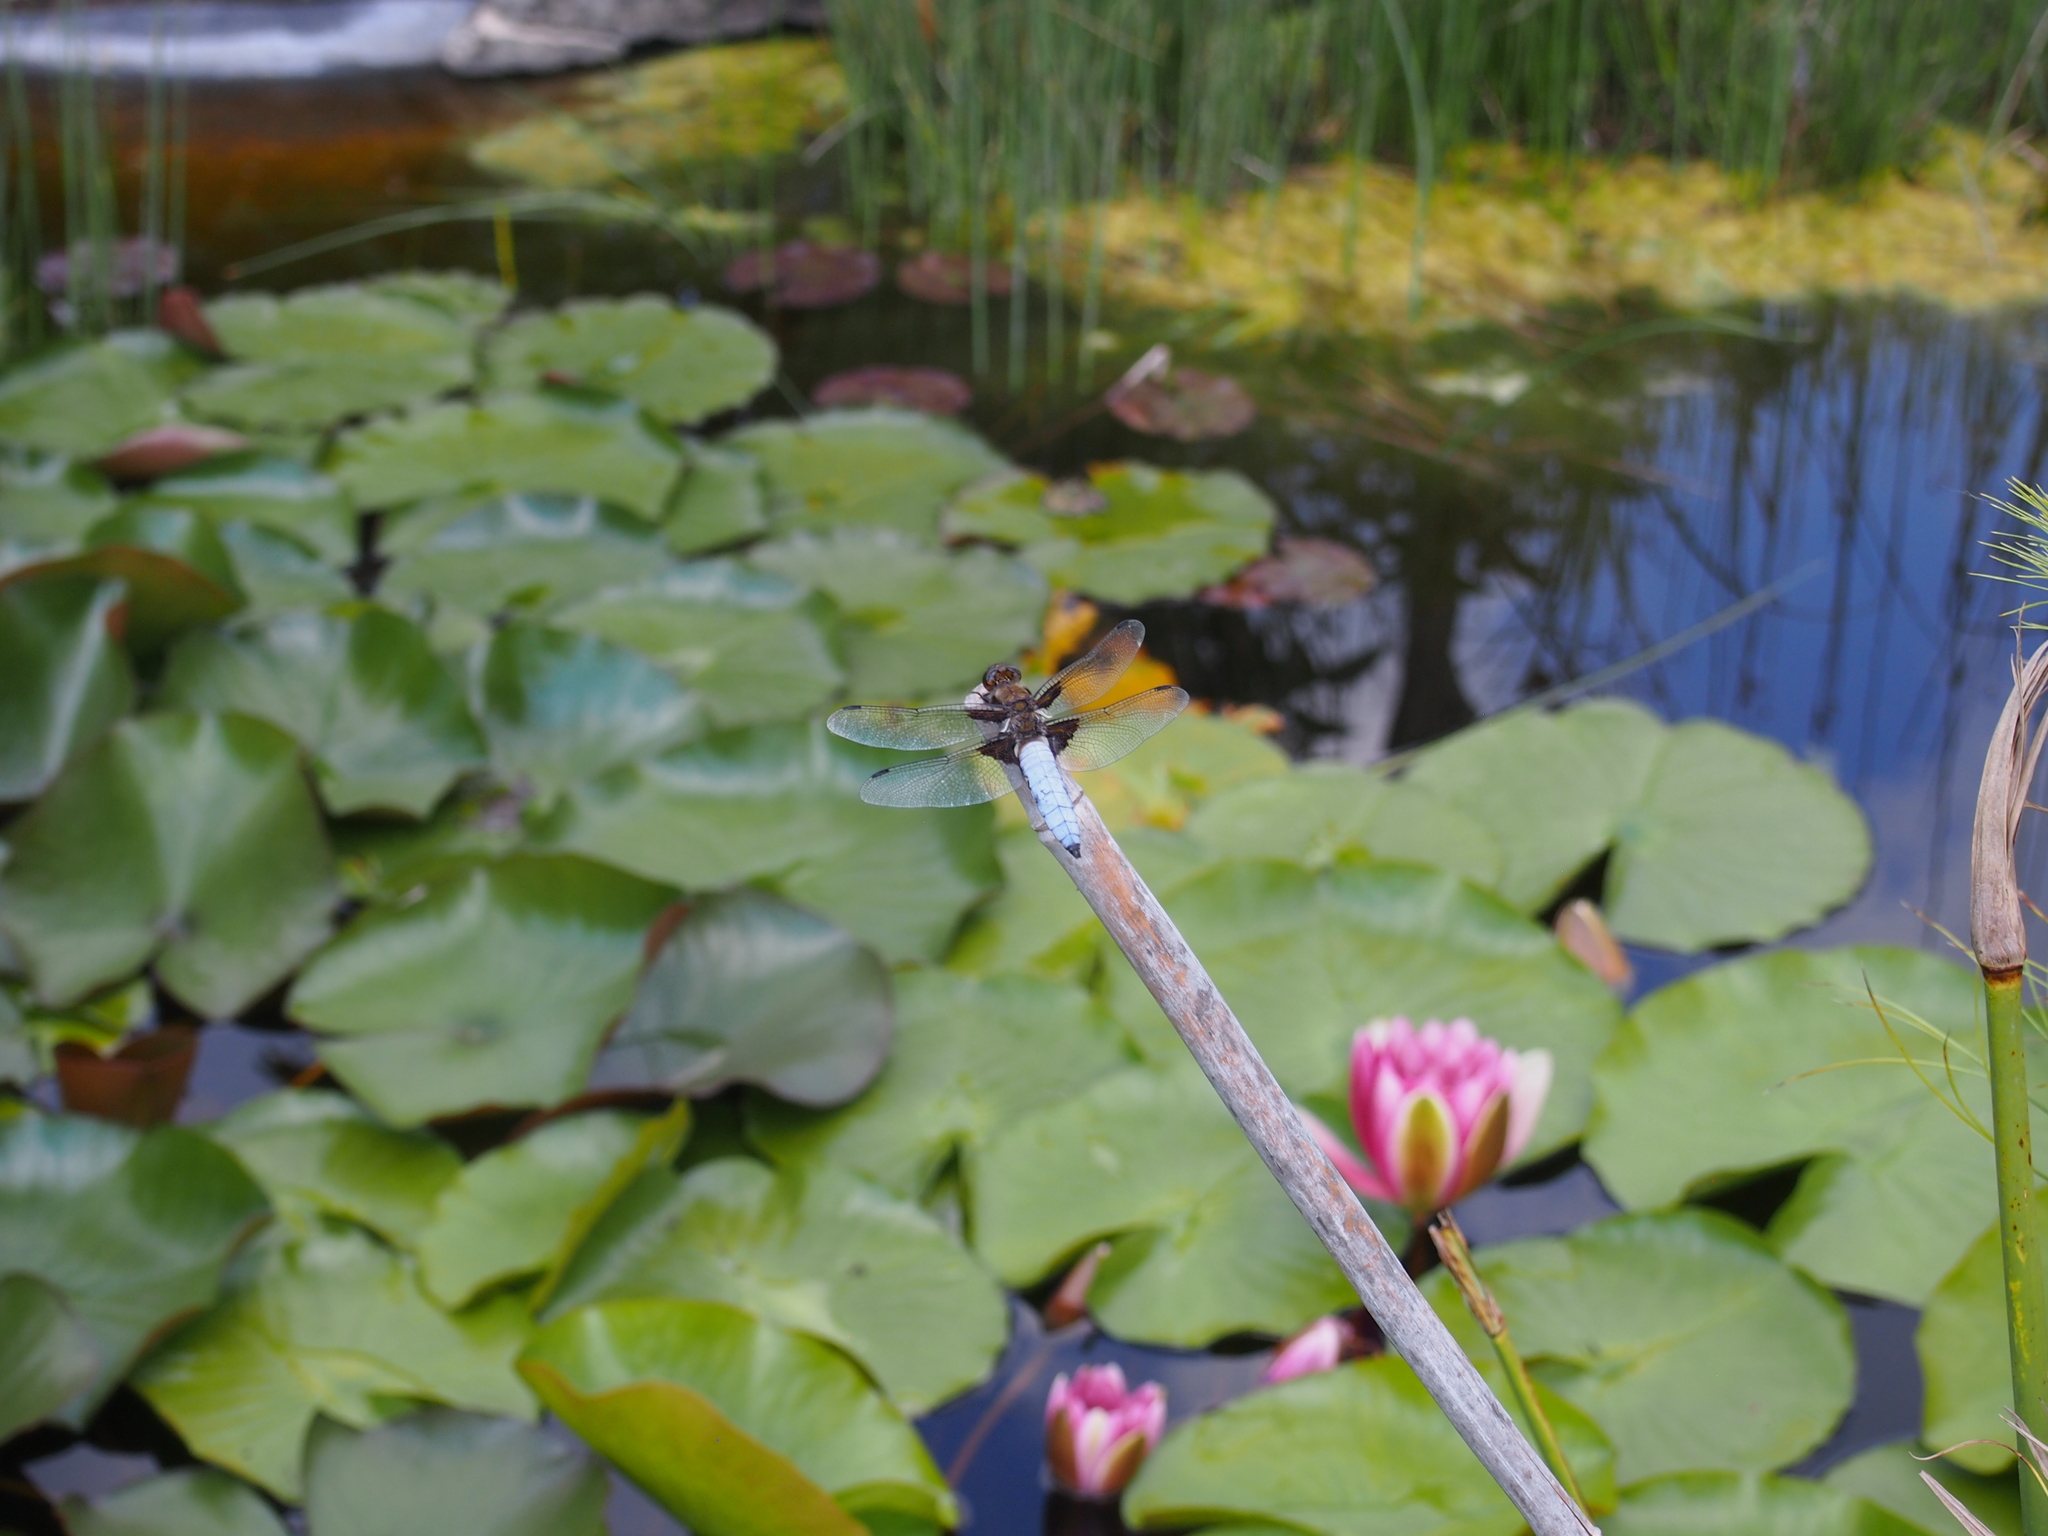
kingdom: Animalia
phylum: Arthropoda
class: Insecta
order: Odonata
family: Libellulidae
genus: Libellula
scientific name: Libellula depressa
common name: Broad-bodied chaser
